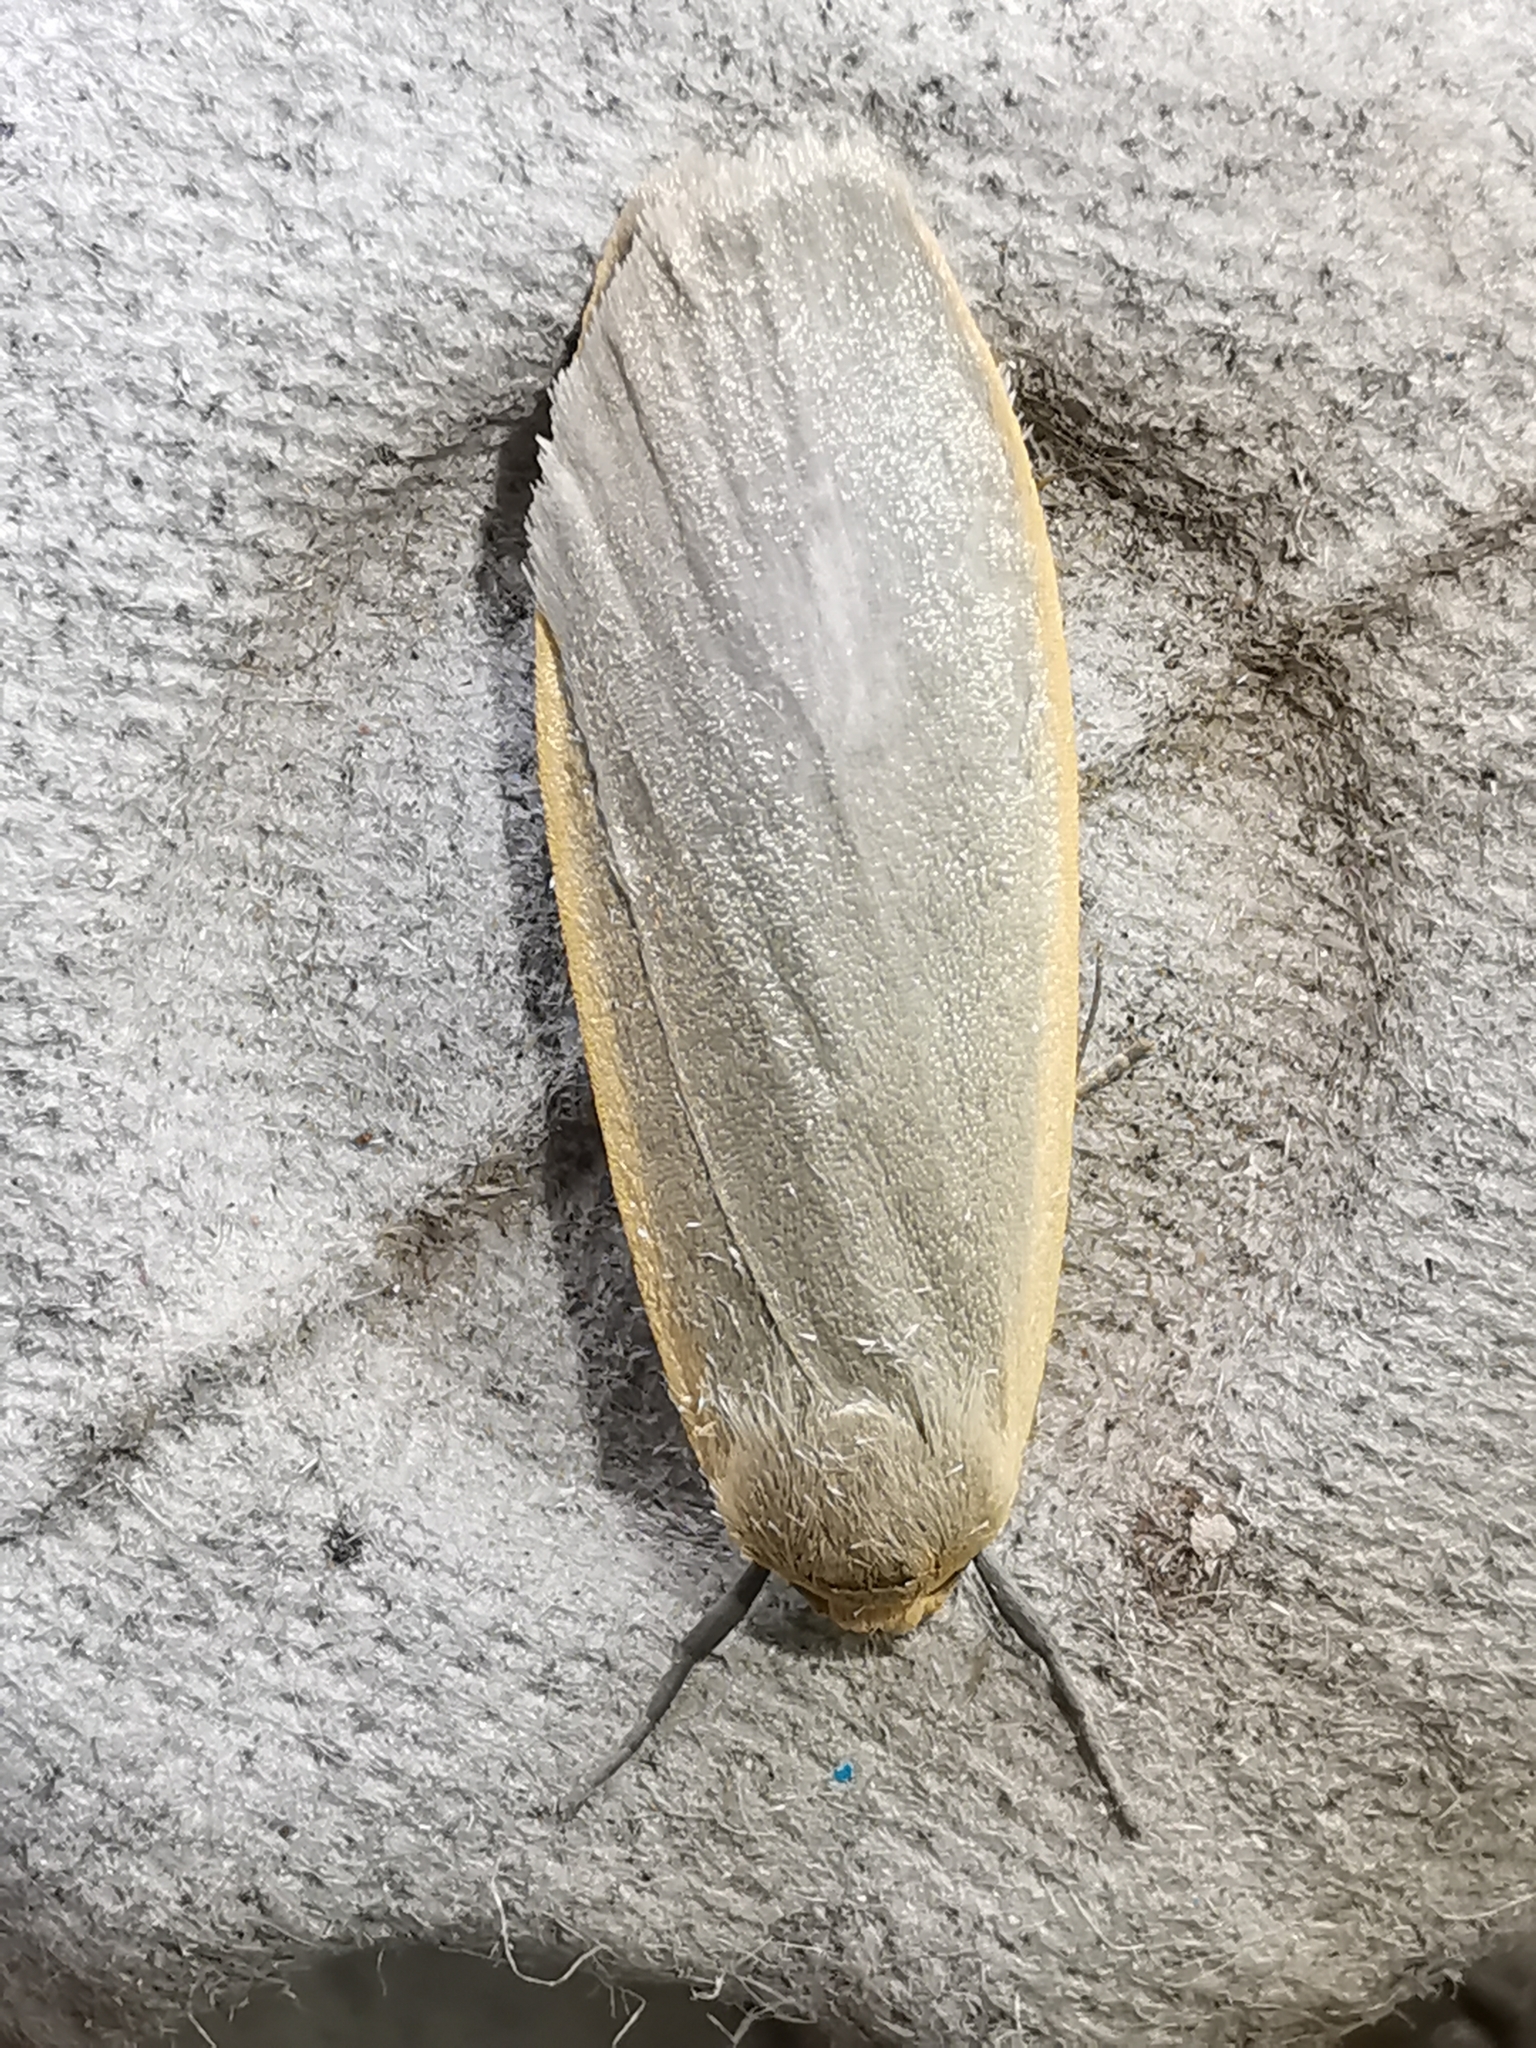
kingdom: Animalia
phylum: Arthropoda
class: Insecta
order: Lepidoptera
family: Erebidae
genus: Collita
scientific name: Collita griseola
